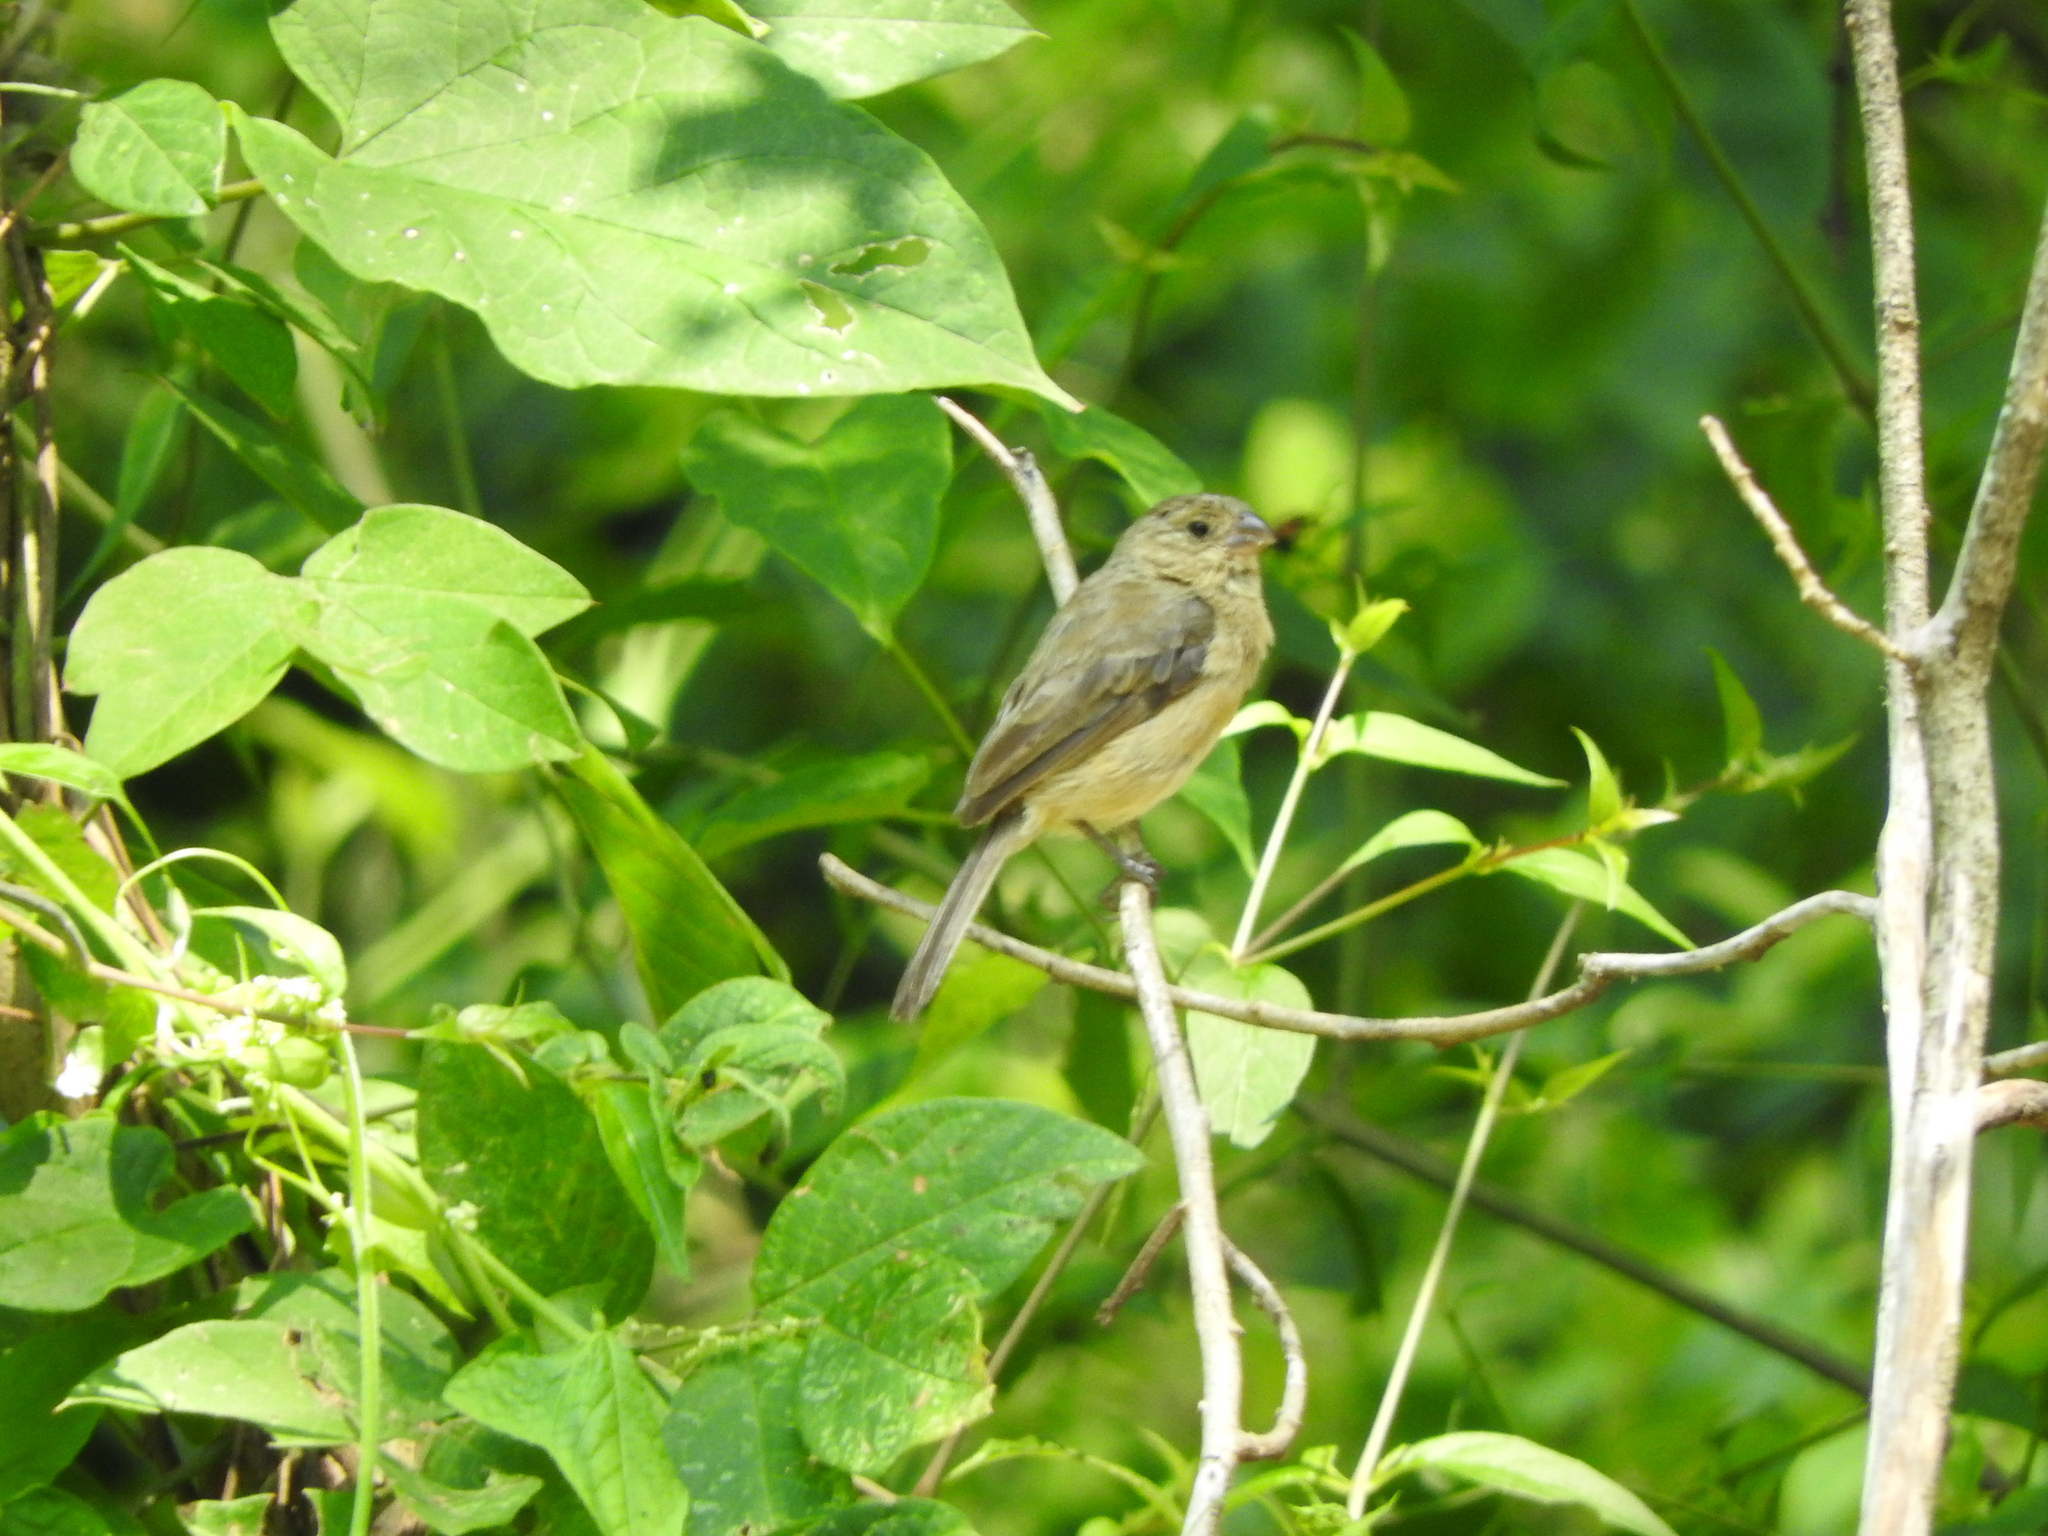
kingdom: Animalia
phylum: Chordata
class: Aves
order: Passeriformes
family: Thraupidae
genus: Sporophila
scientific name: Sporophila torqueola
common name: White-collared seedeater
